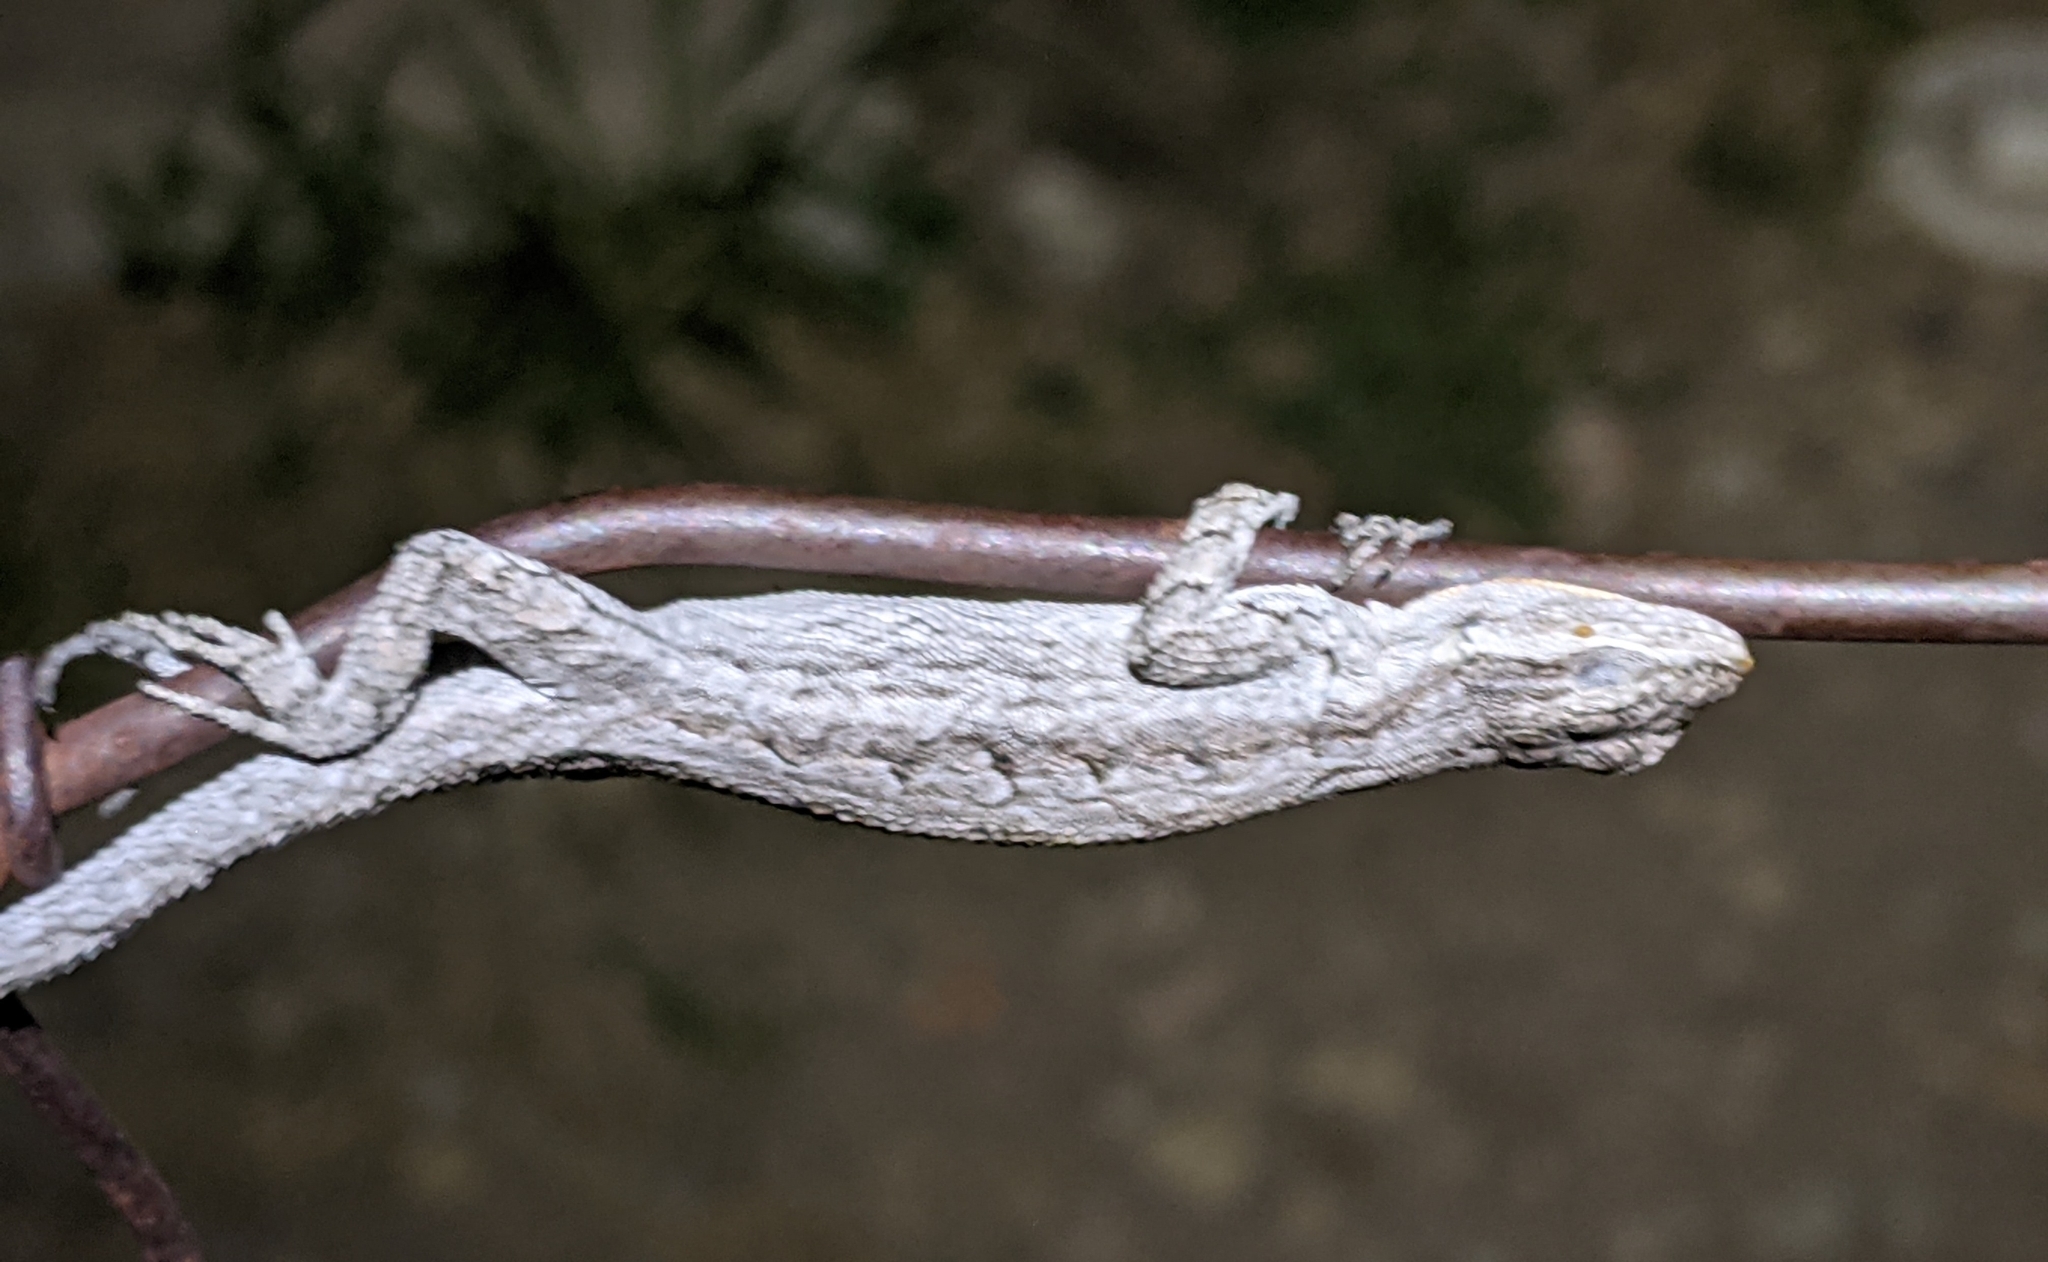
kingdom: Animalia
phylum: Chordata
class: Squamata
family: Phrynosomatidae
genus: Urosaurus
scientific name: Urosaurus ornatus
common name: Ornate tree lizard
